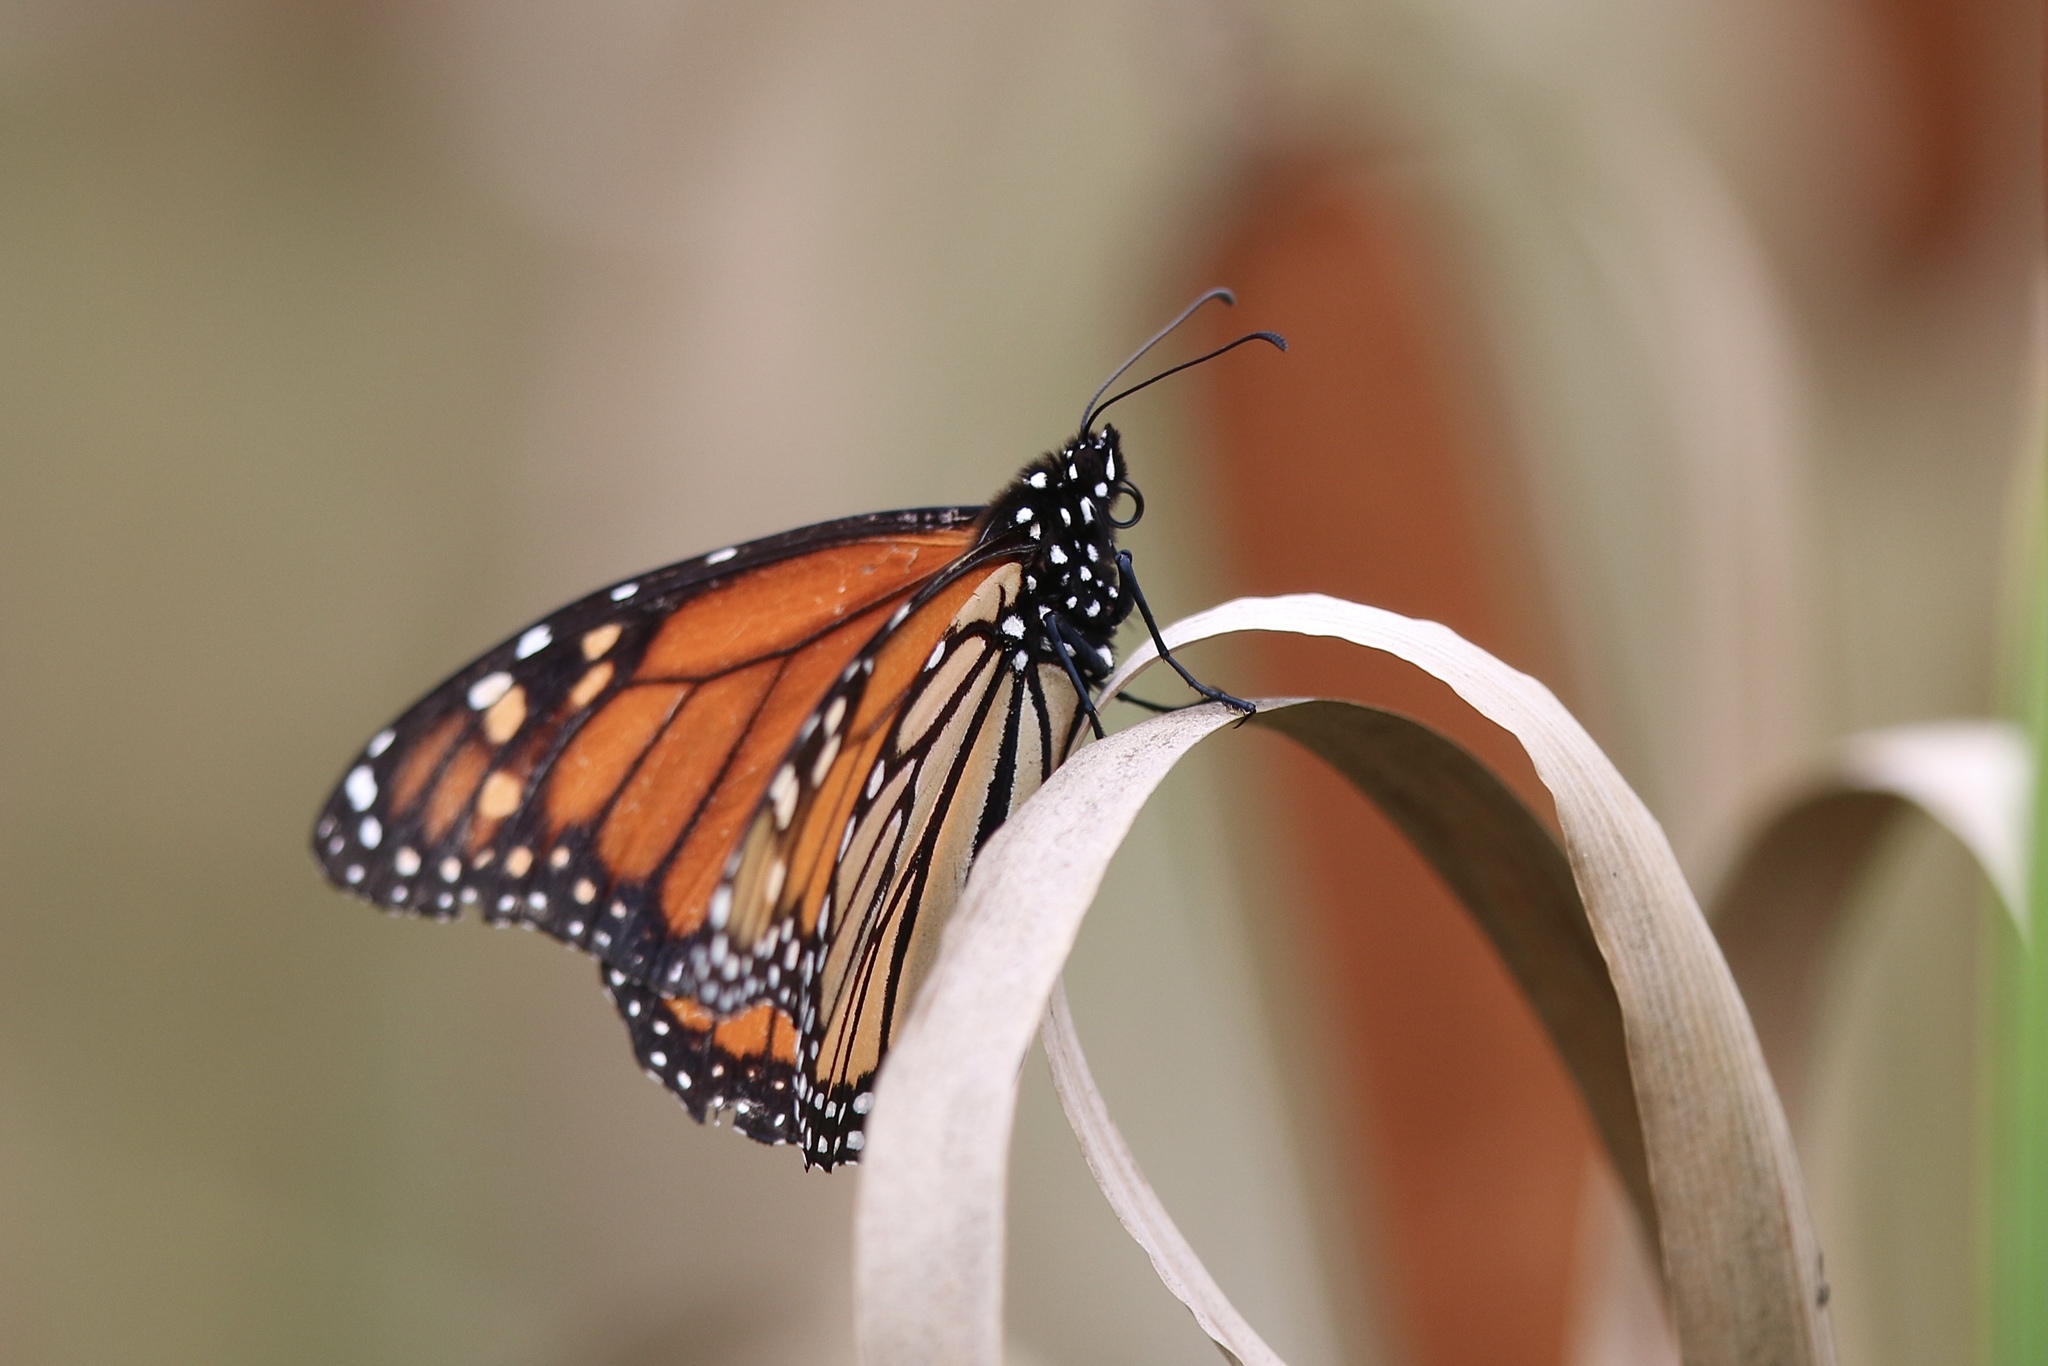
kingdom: Animalia
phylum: Arthropoda
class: Insecta
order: Lepidoptera
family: Nymphalidae
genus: Danaus
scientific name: Danaus plexippus
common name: Monarch
